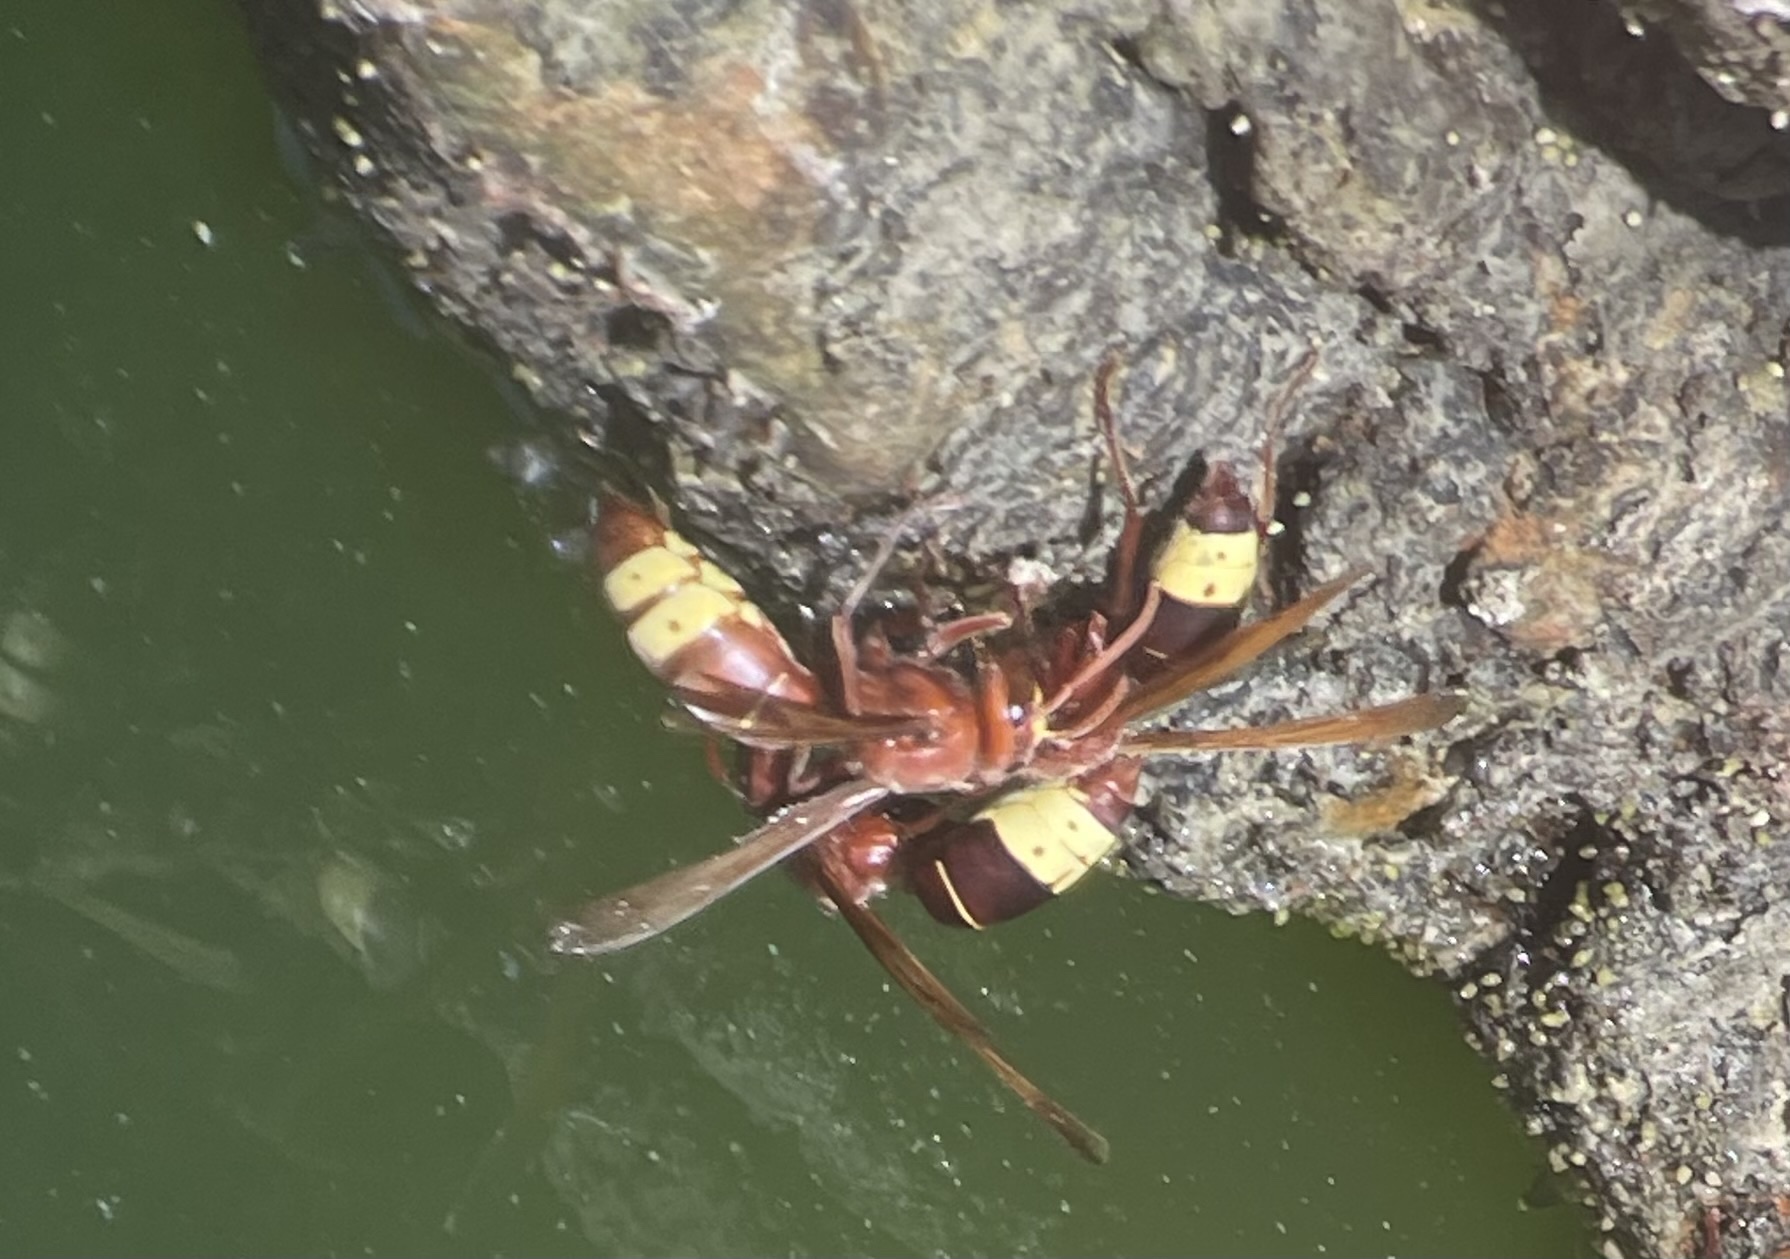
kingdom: Animalia
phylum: Arthropoda
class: Insecta
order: Hymenoptera
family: Vespidae
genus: Vespa
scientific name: Vespa orientalis
